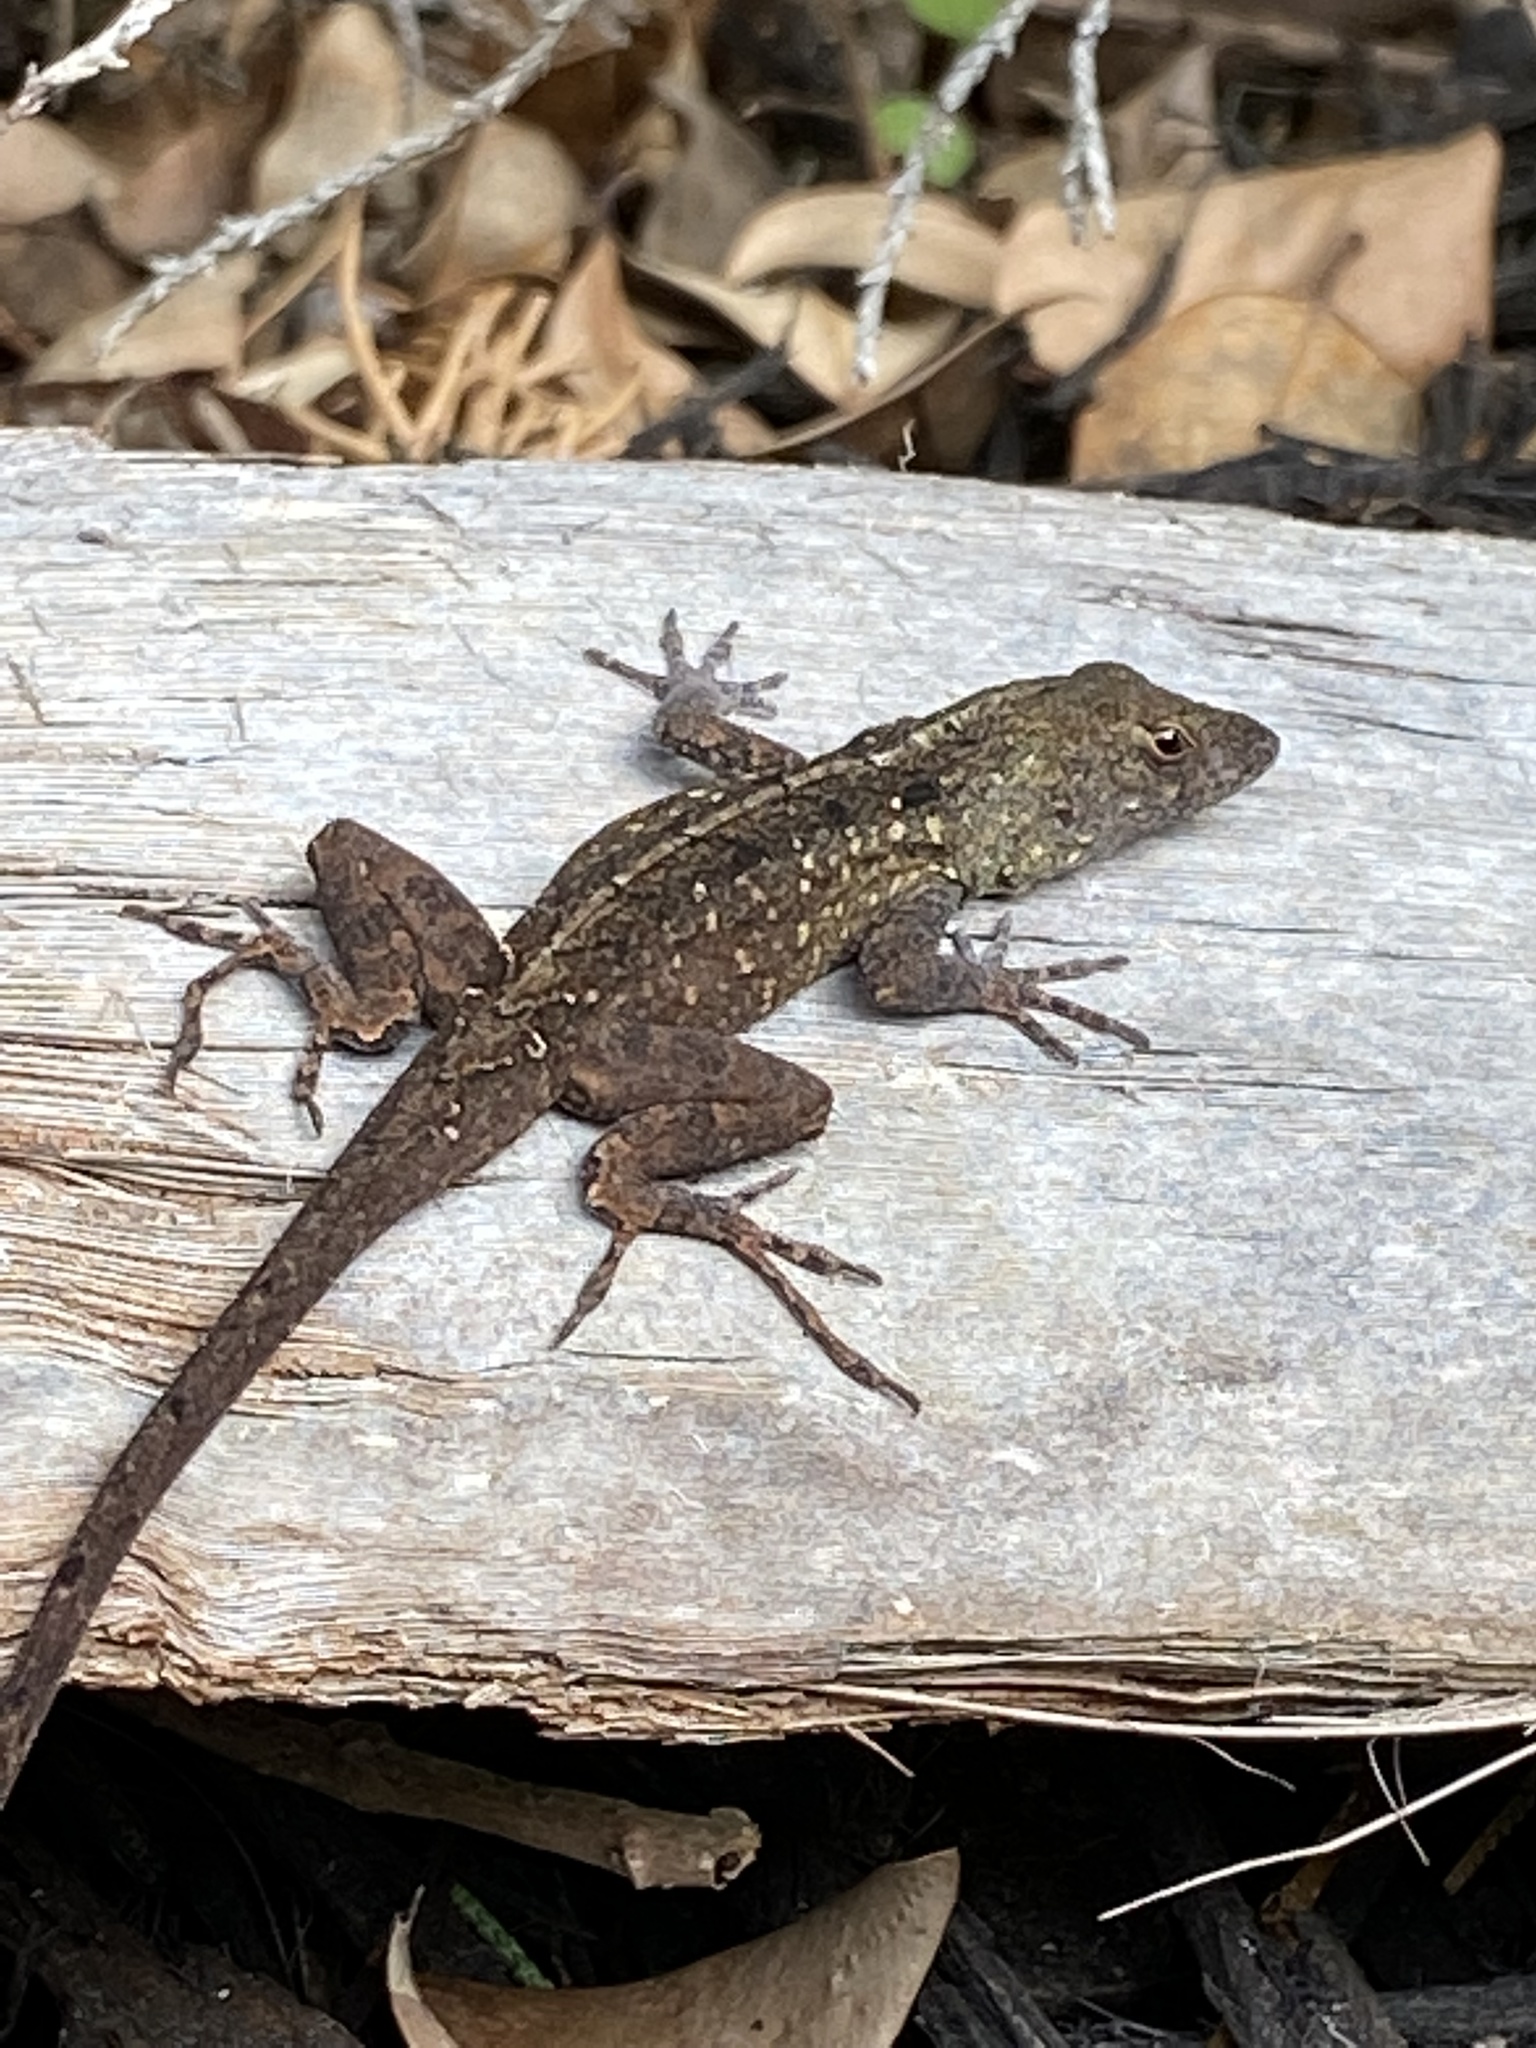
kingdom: Animalia
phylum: Chordata
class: Squamata
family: Dactyloidae
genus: Anolis
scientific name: Anolis sagrei
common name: Brown anole
